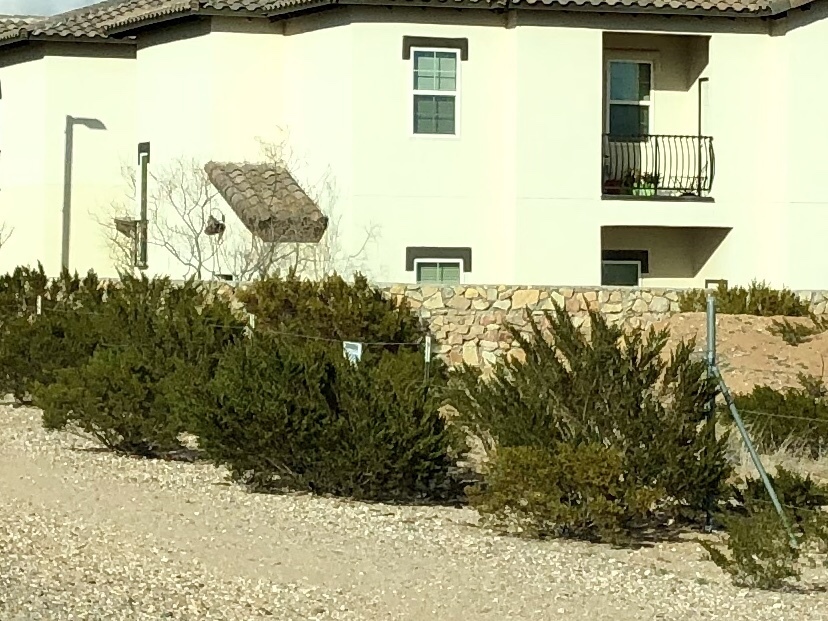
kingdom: Plantae
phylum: Tracheophyta
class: Magnoliopsida
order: Zygophyllales
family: Zygophyllaceae
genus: Larrea
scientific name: Larrea tridentata
